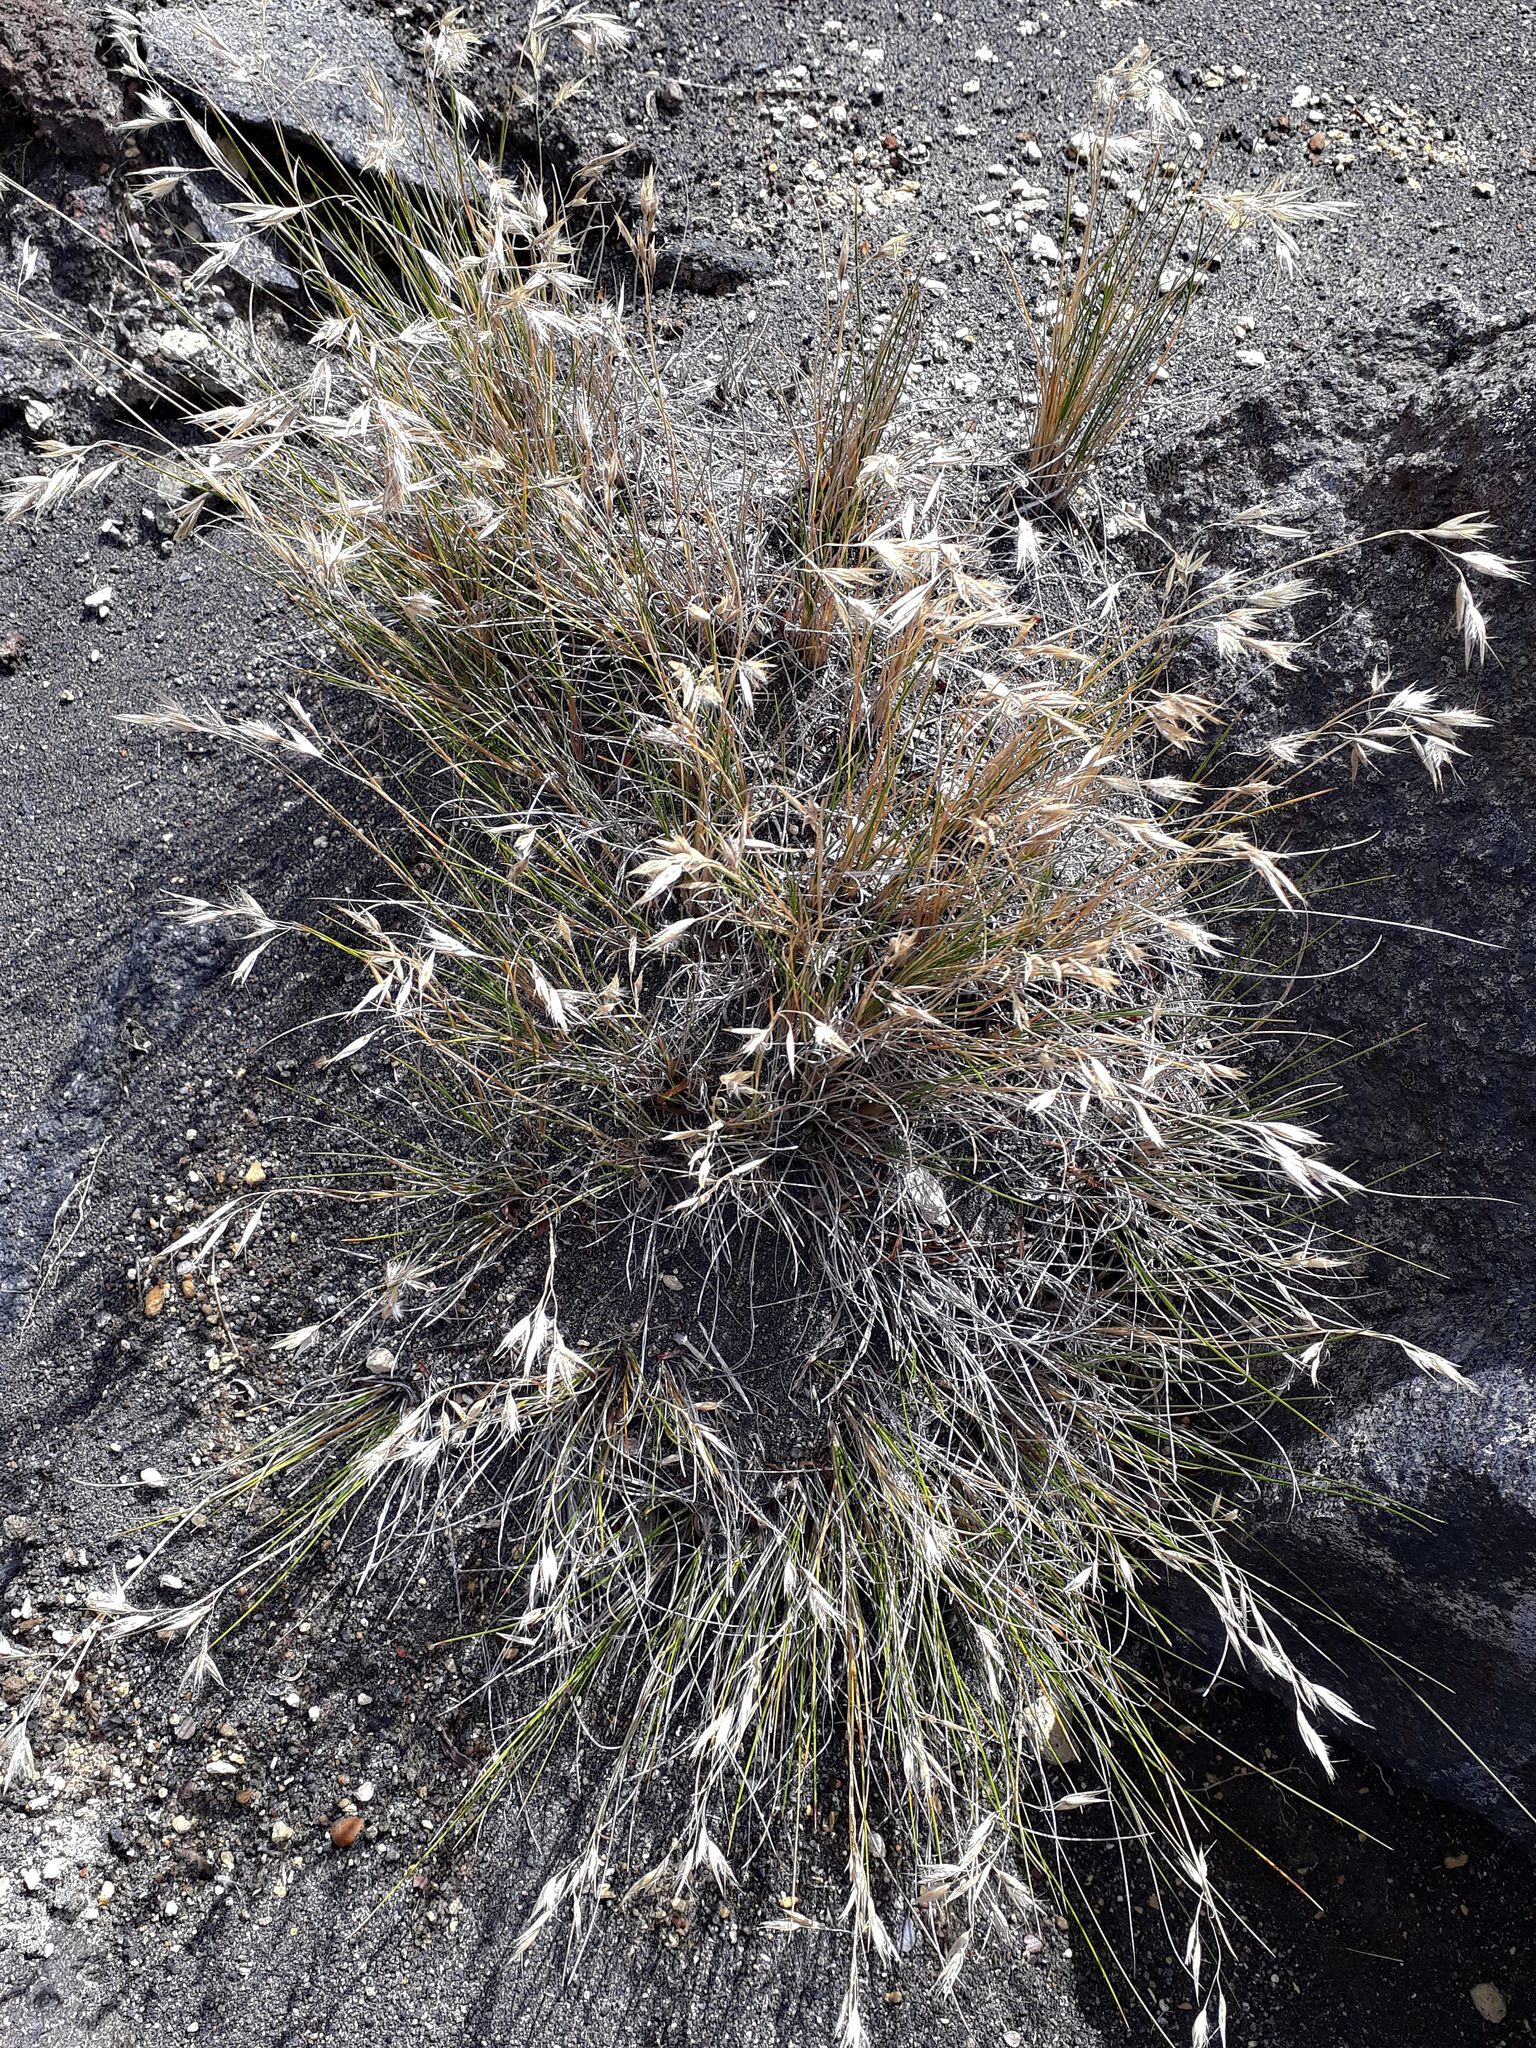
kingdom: Plantae
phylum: Tracheophyta
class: Liliopsida
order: Poales
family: Poaceae
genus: Rytidosperma
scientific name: Rytidosperma setifolium
